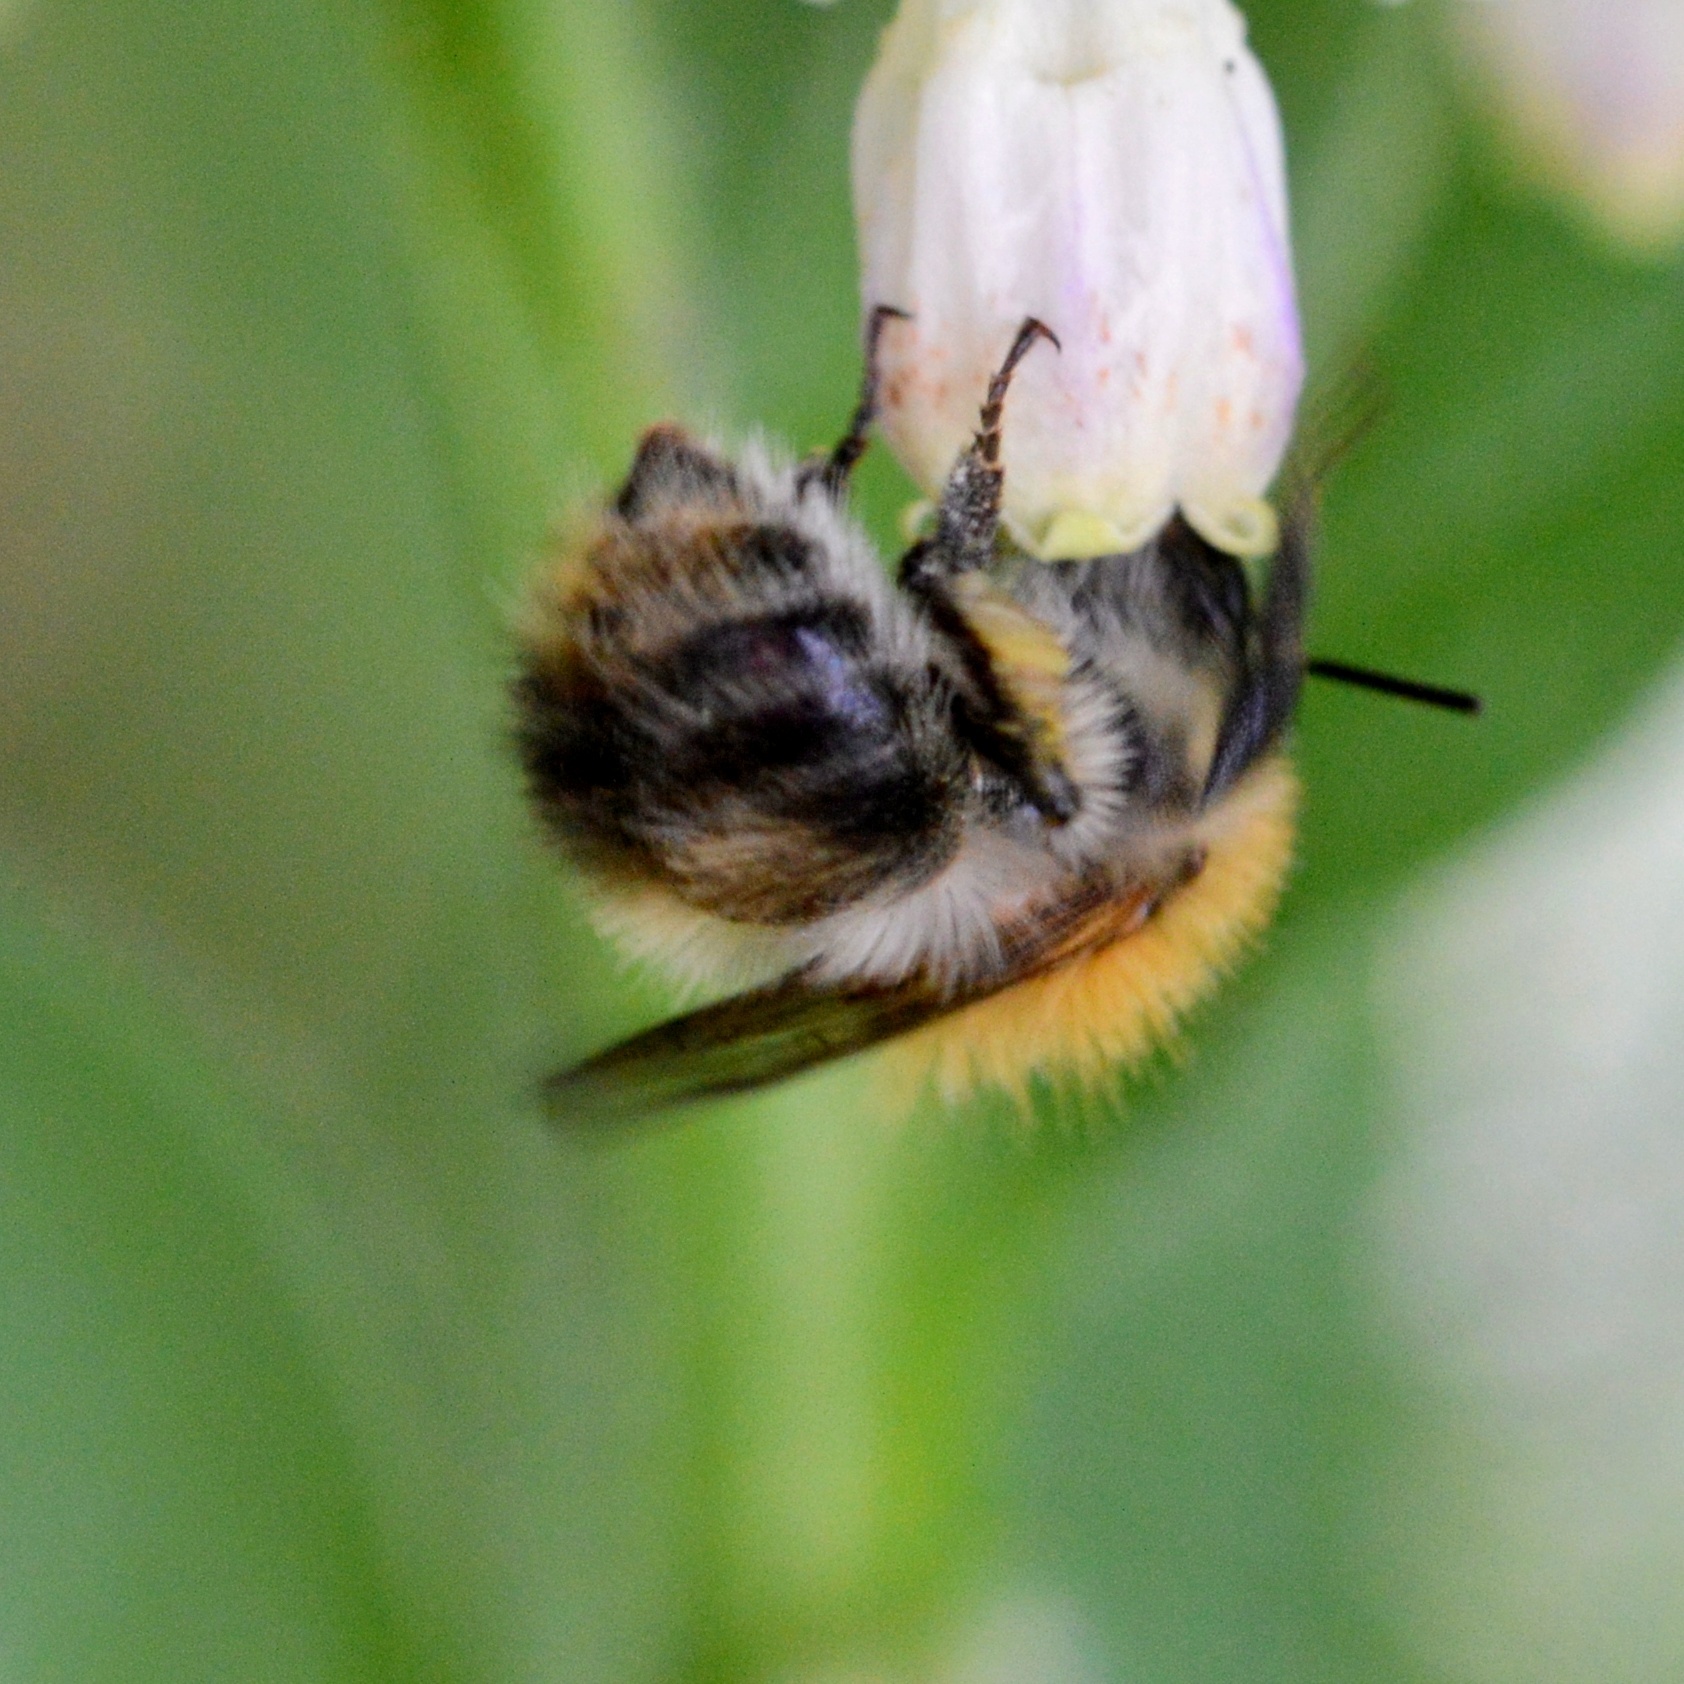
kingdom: Animalia
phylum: Arthropoda
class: Insecta
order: Hymenoptera
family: Apidae
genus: Bombus
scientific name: Bombus pascuorum
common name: Common carder bee
